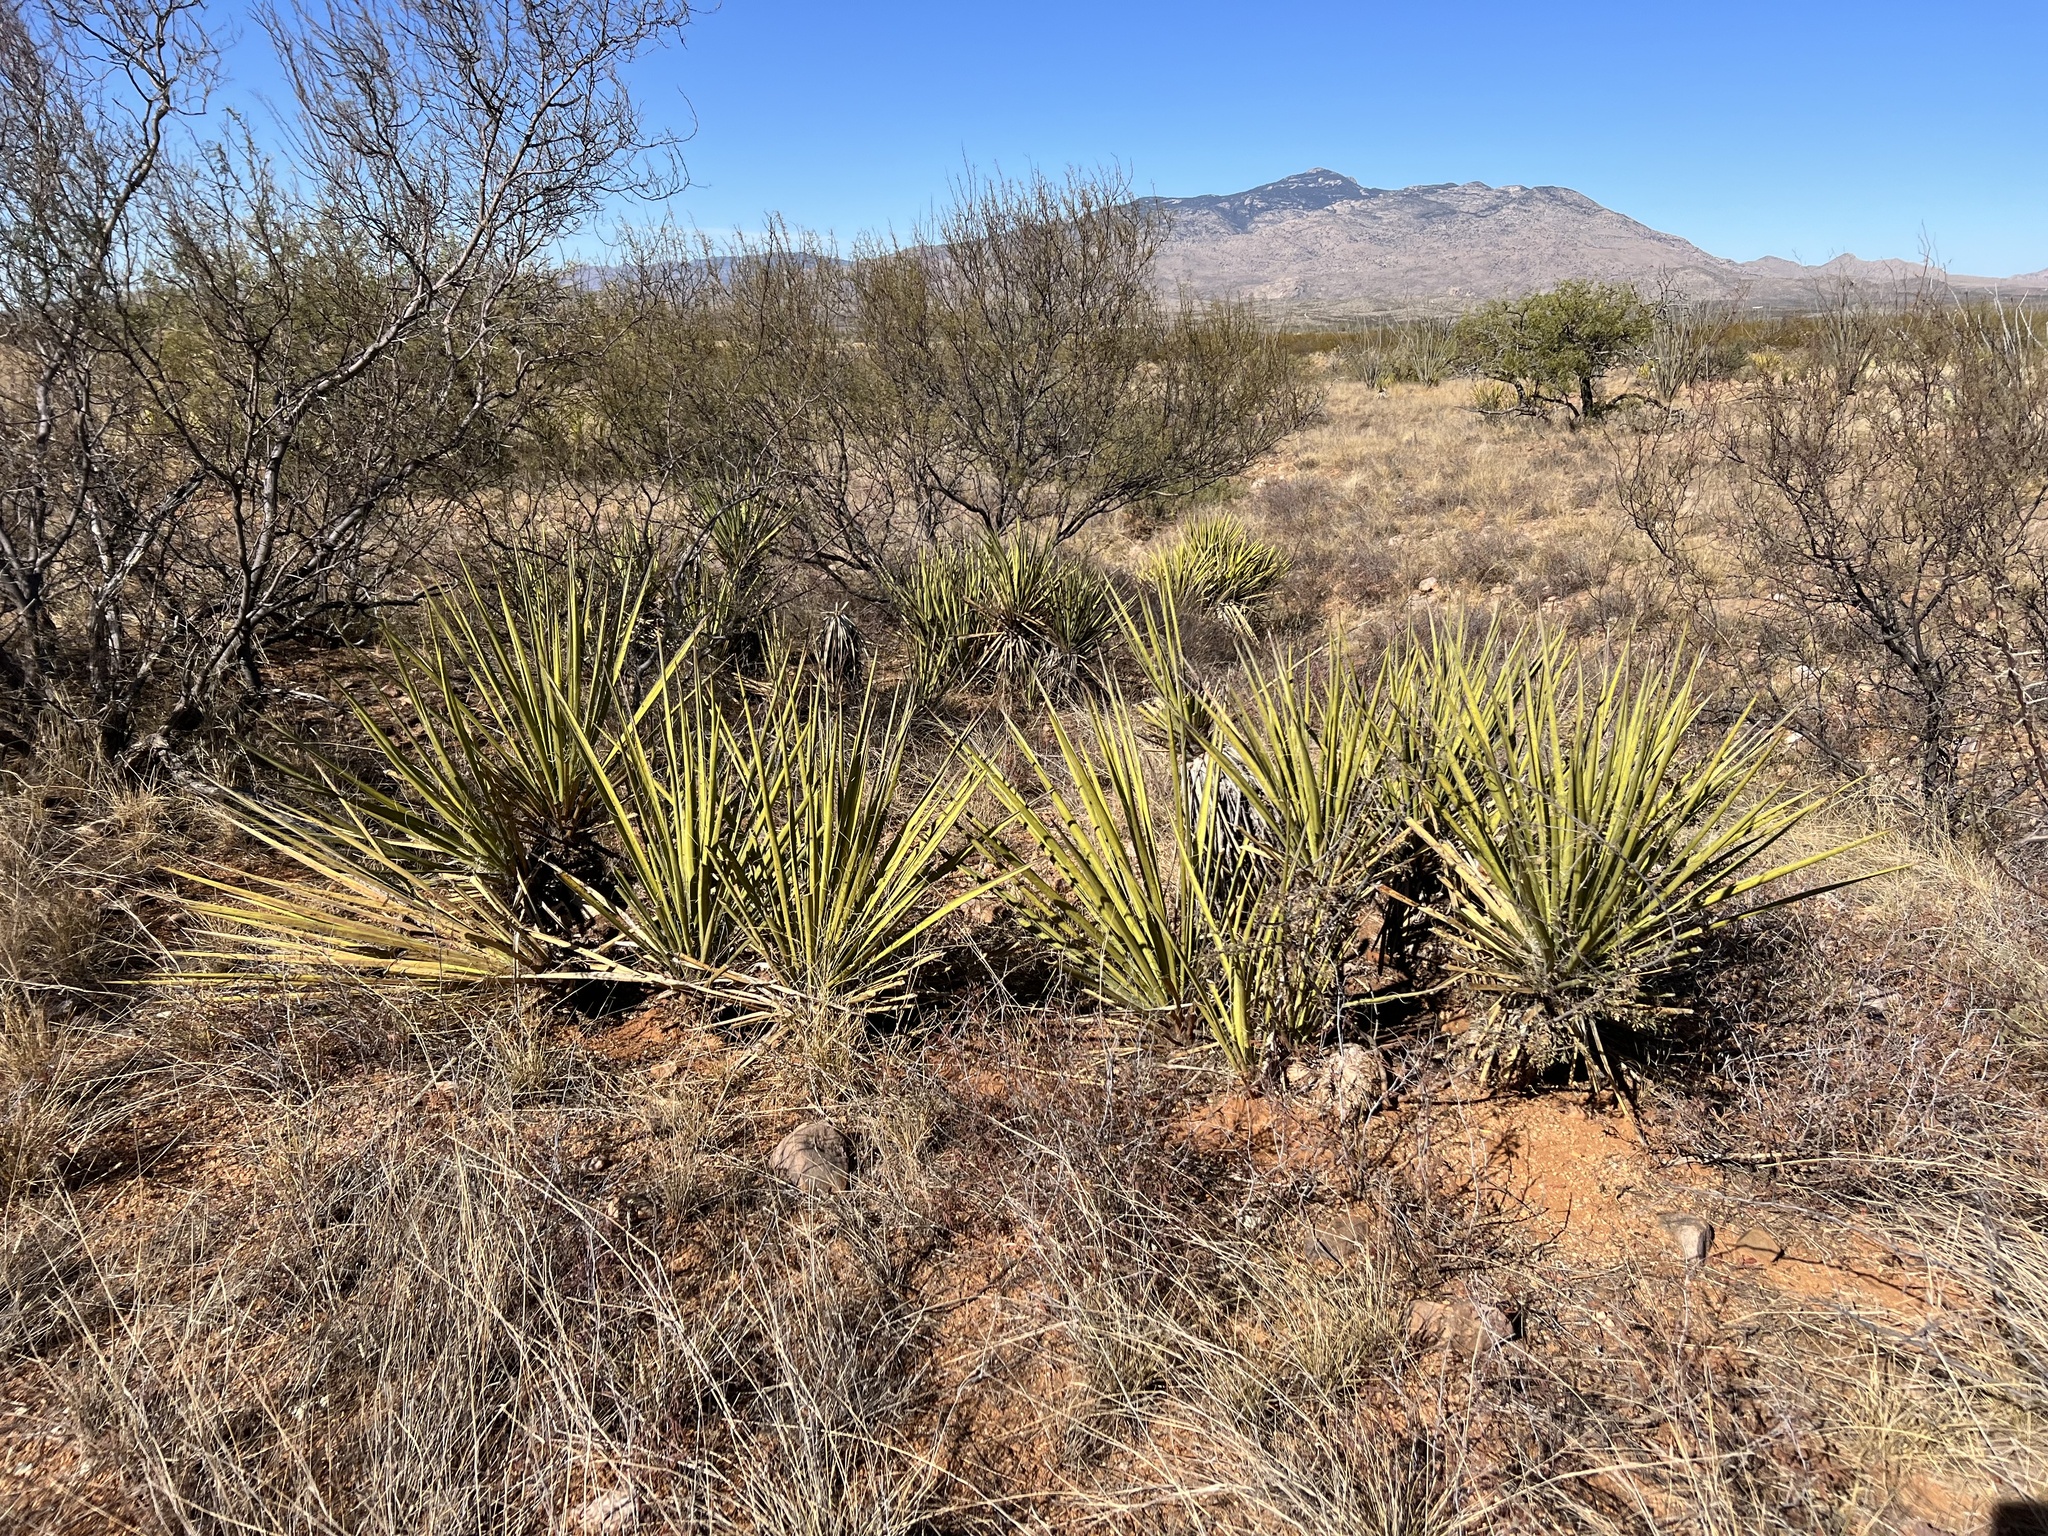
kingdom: Plantae
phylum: Tracheophyta
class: Liliopsida
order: Asparagales
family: Asparagaceae
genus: Yucca
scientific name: Yucca baccata
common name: Banana yucca
